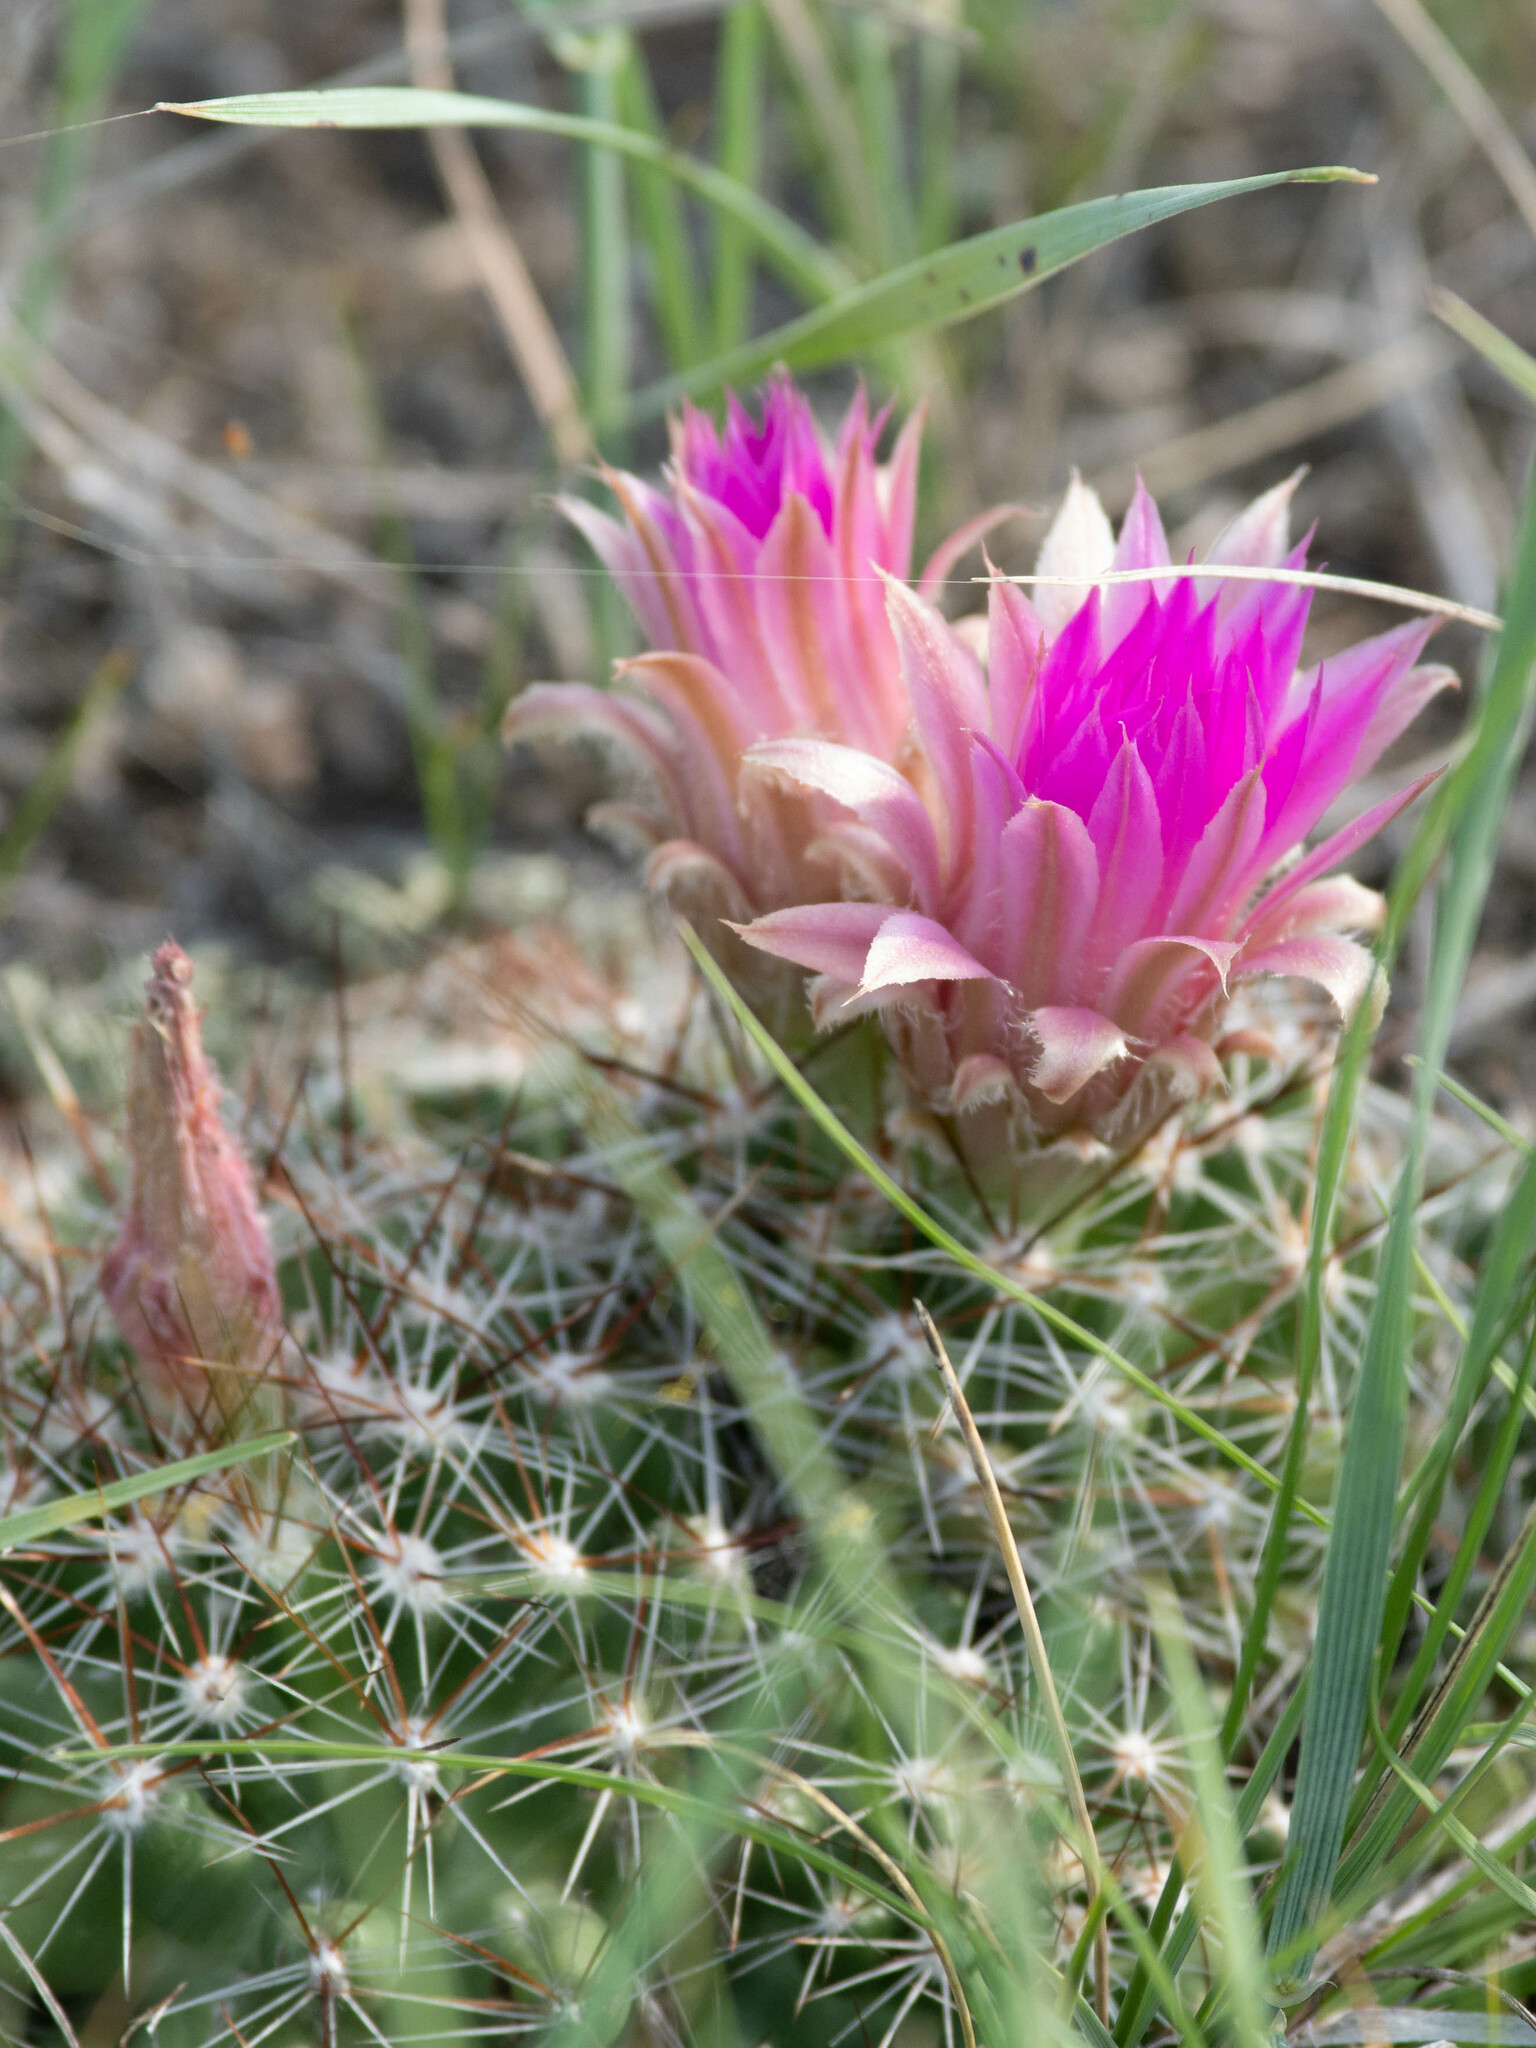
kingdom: Plantae
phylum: Tracheophyta
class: Magnoliopsida
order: Caryophyllales
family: Cactaceae
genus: Pelecyphora
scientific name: Pelecyphora vivipara
